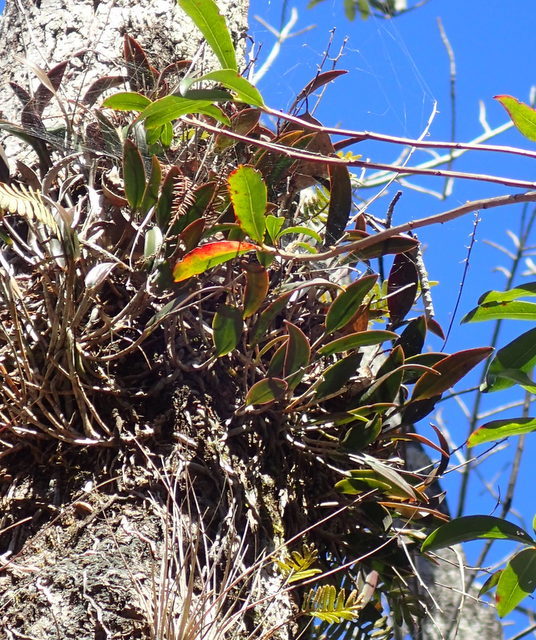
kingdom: Plantae
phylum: Tracheophyta
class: Liliopsida
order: Asparagales
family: Orchidaceae
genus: Epidendrum
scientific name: Epidendrum conopseum
